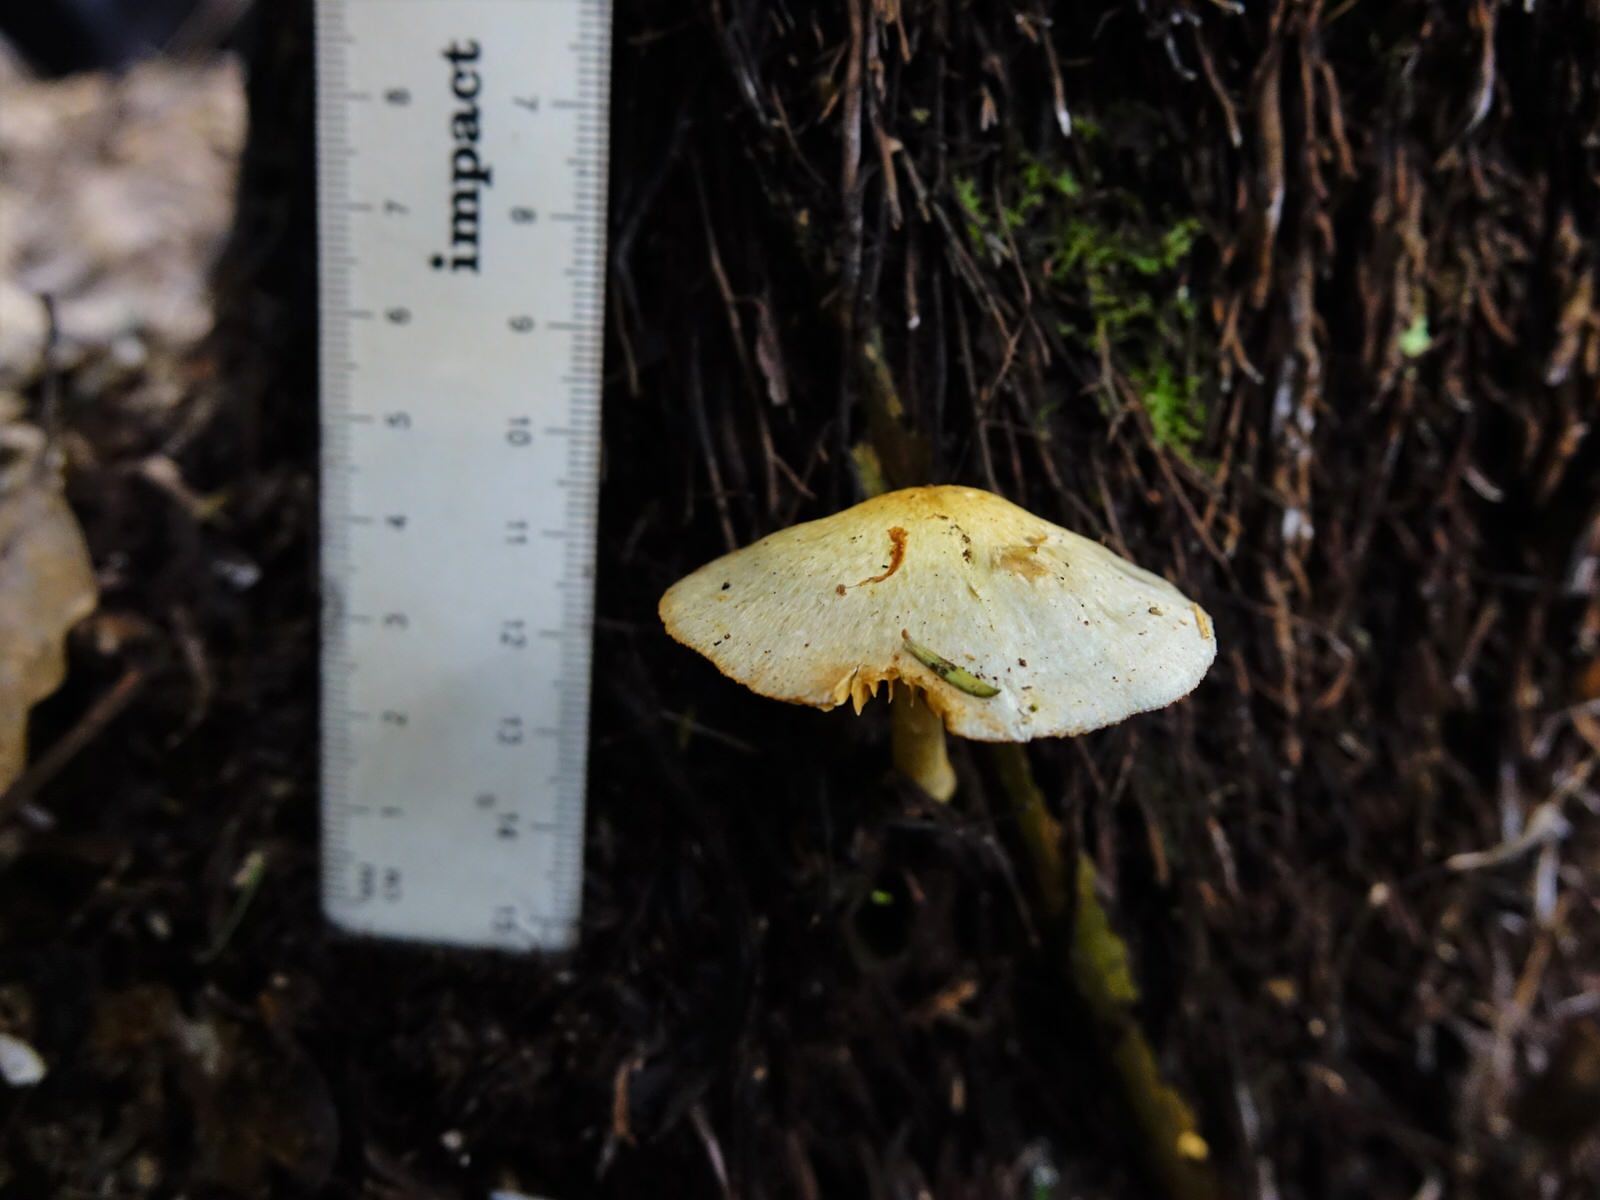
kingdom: Fungi
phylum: Basidiomycota
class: Agaricomycetes
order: Agaricales
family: Cortinariaceae
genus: Cortinarius
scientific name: Cortinarius
